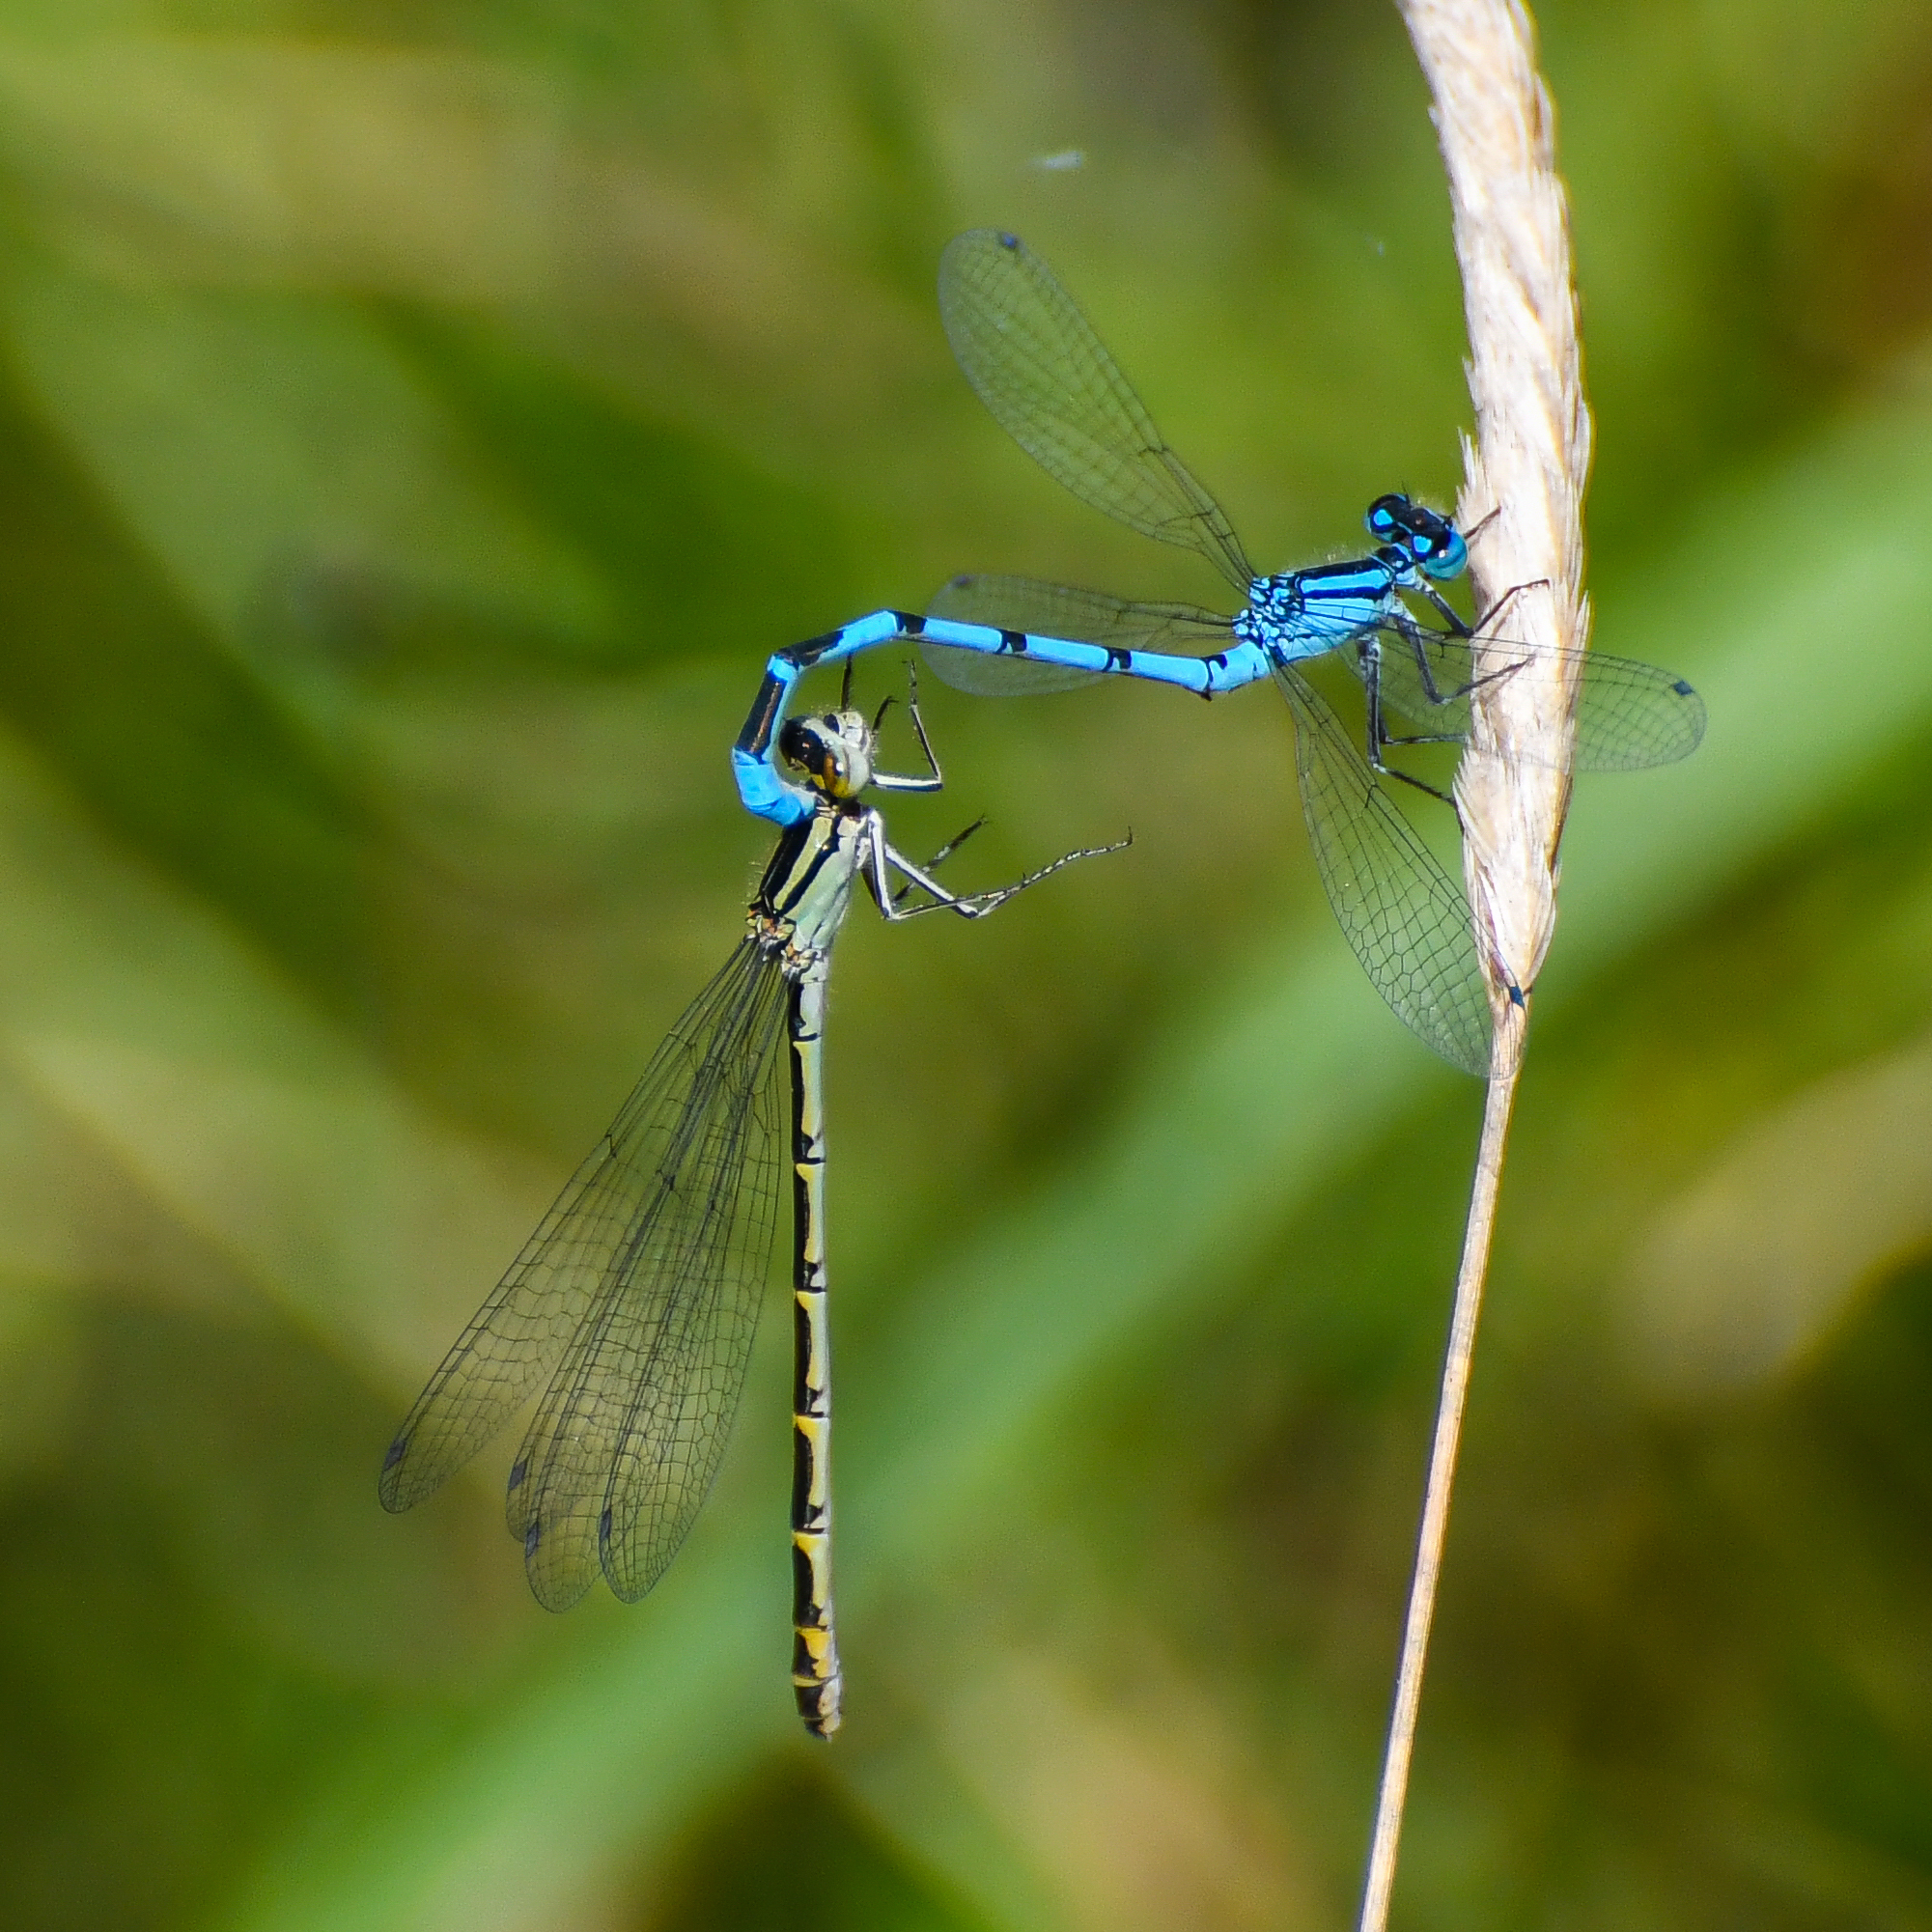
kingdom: Animalia
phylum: Arthropoda
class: Insecta
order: Odonata
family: Coenagrionidae
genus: Enallagma
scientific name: Enallagma cyathigerum
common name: Common blue damselfly
